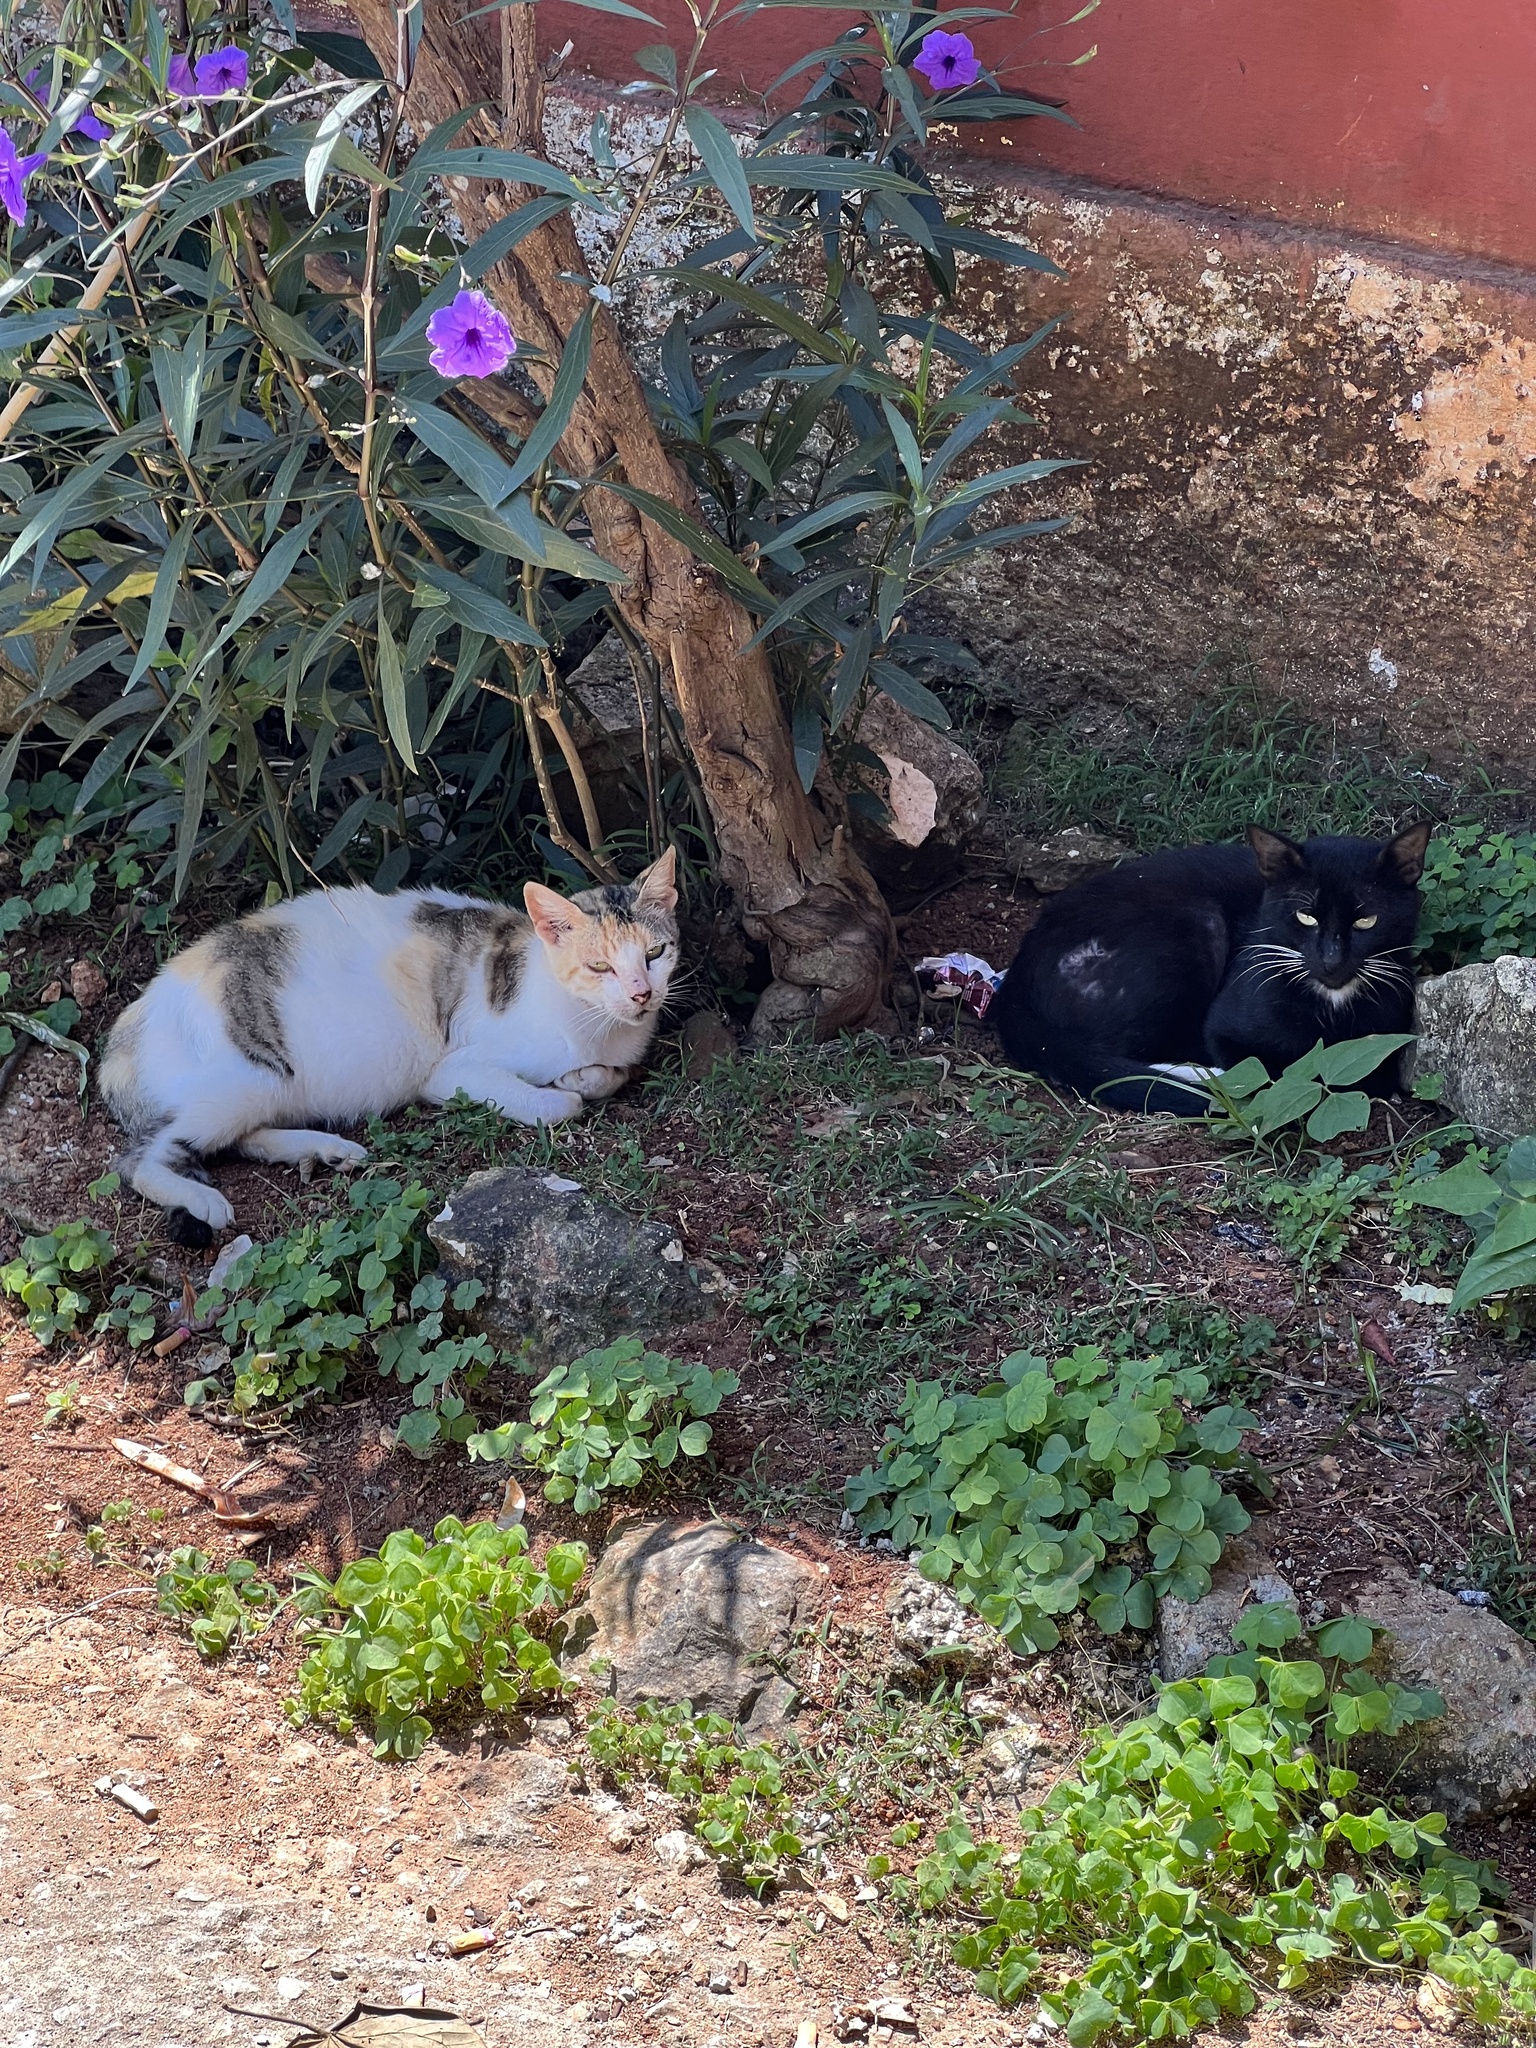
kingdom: Animalia
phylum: Chordata
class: Mammalia
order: Carnivora
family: Felidae
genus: Felis
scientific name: Felis catus
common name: Domestic cat
